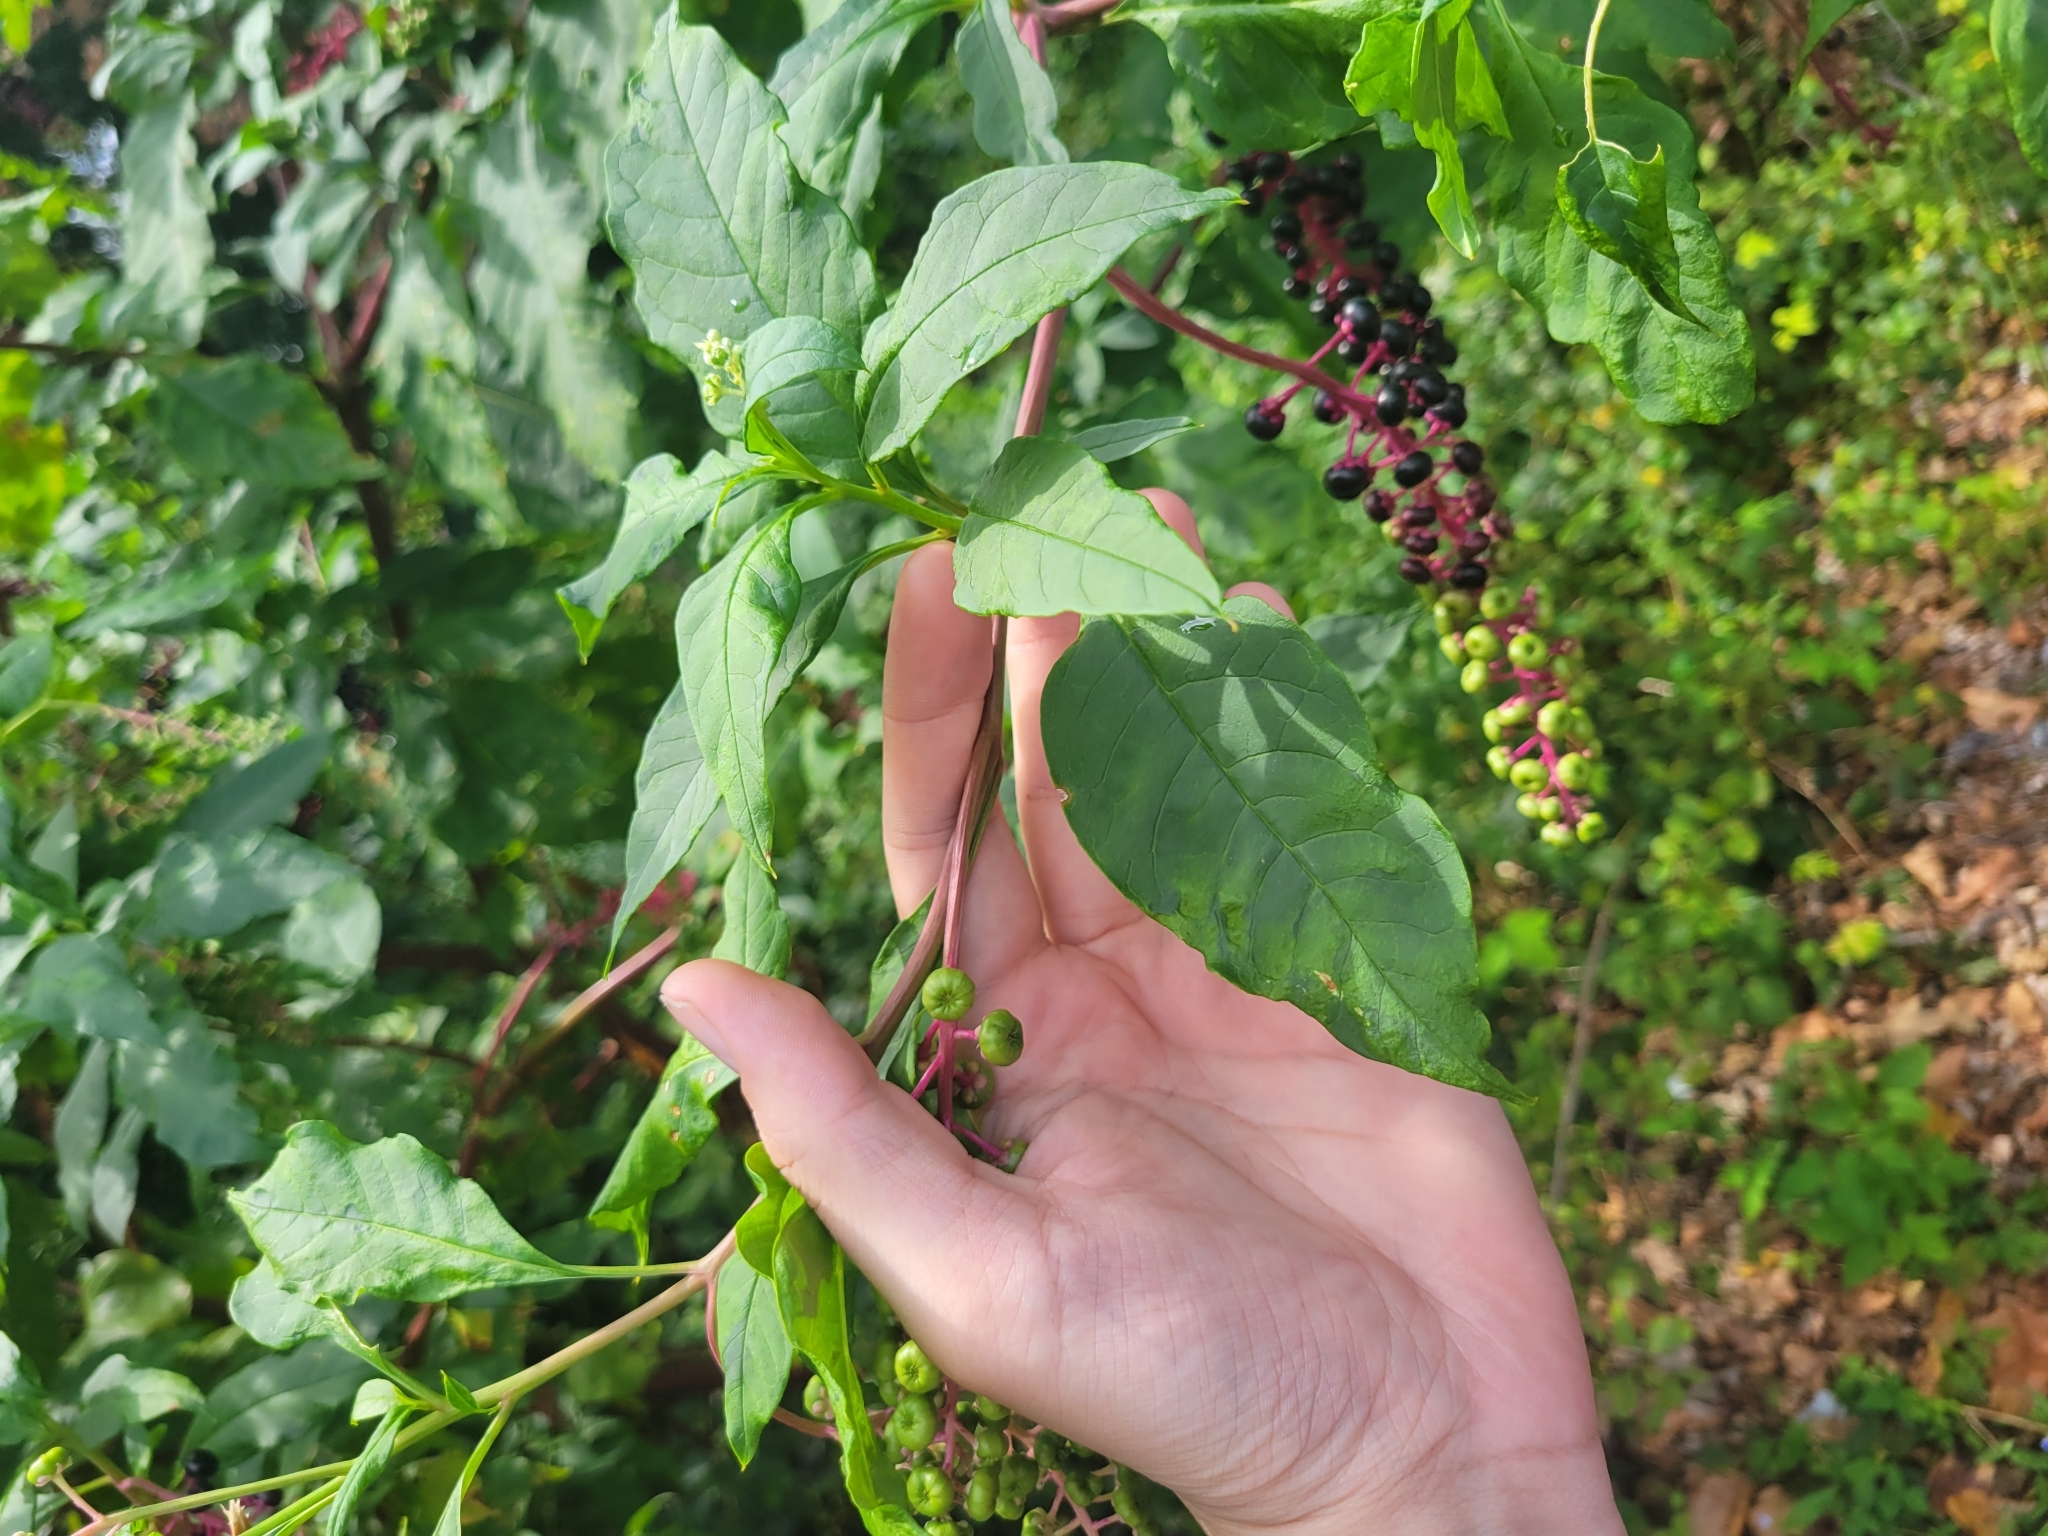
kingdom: Plantae
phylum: Tracheophyta
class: Magnoliopsida
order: Caryophyllales
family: Phytolaccaceae
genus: Phytolacca
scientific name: Phytolacca americana
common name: American pokeweed
